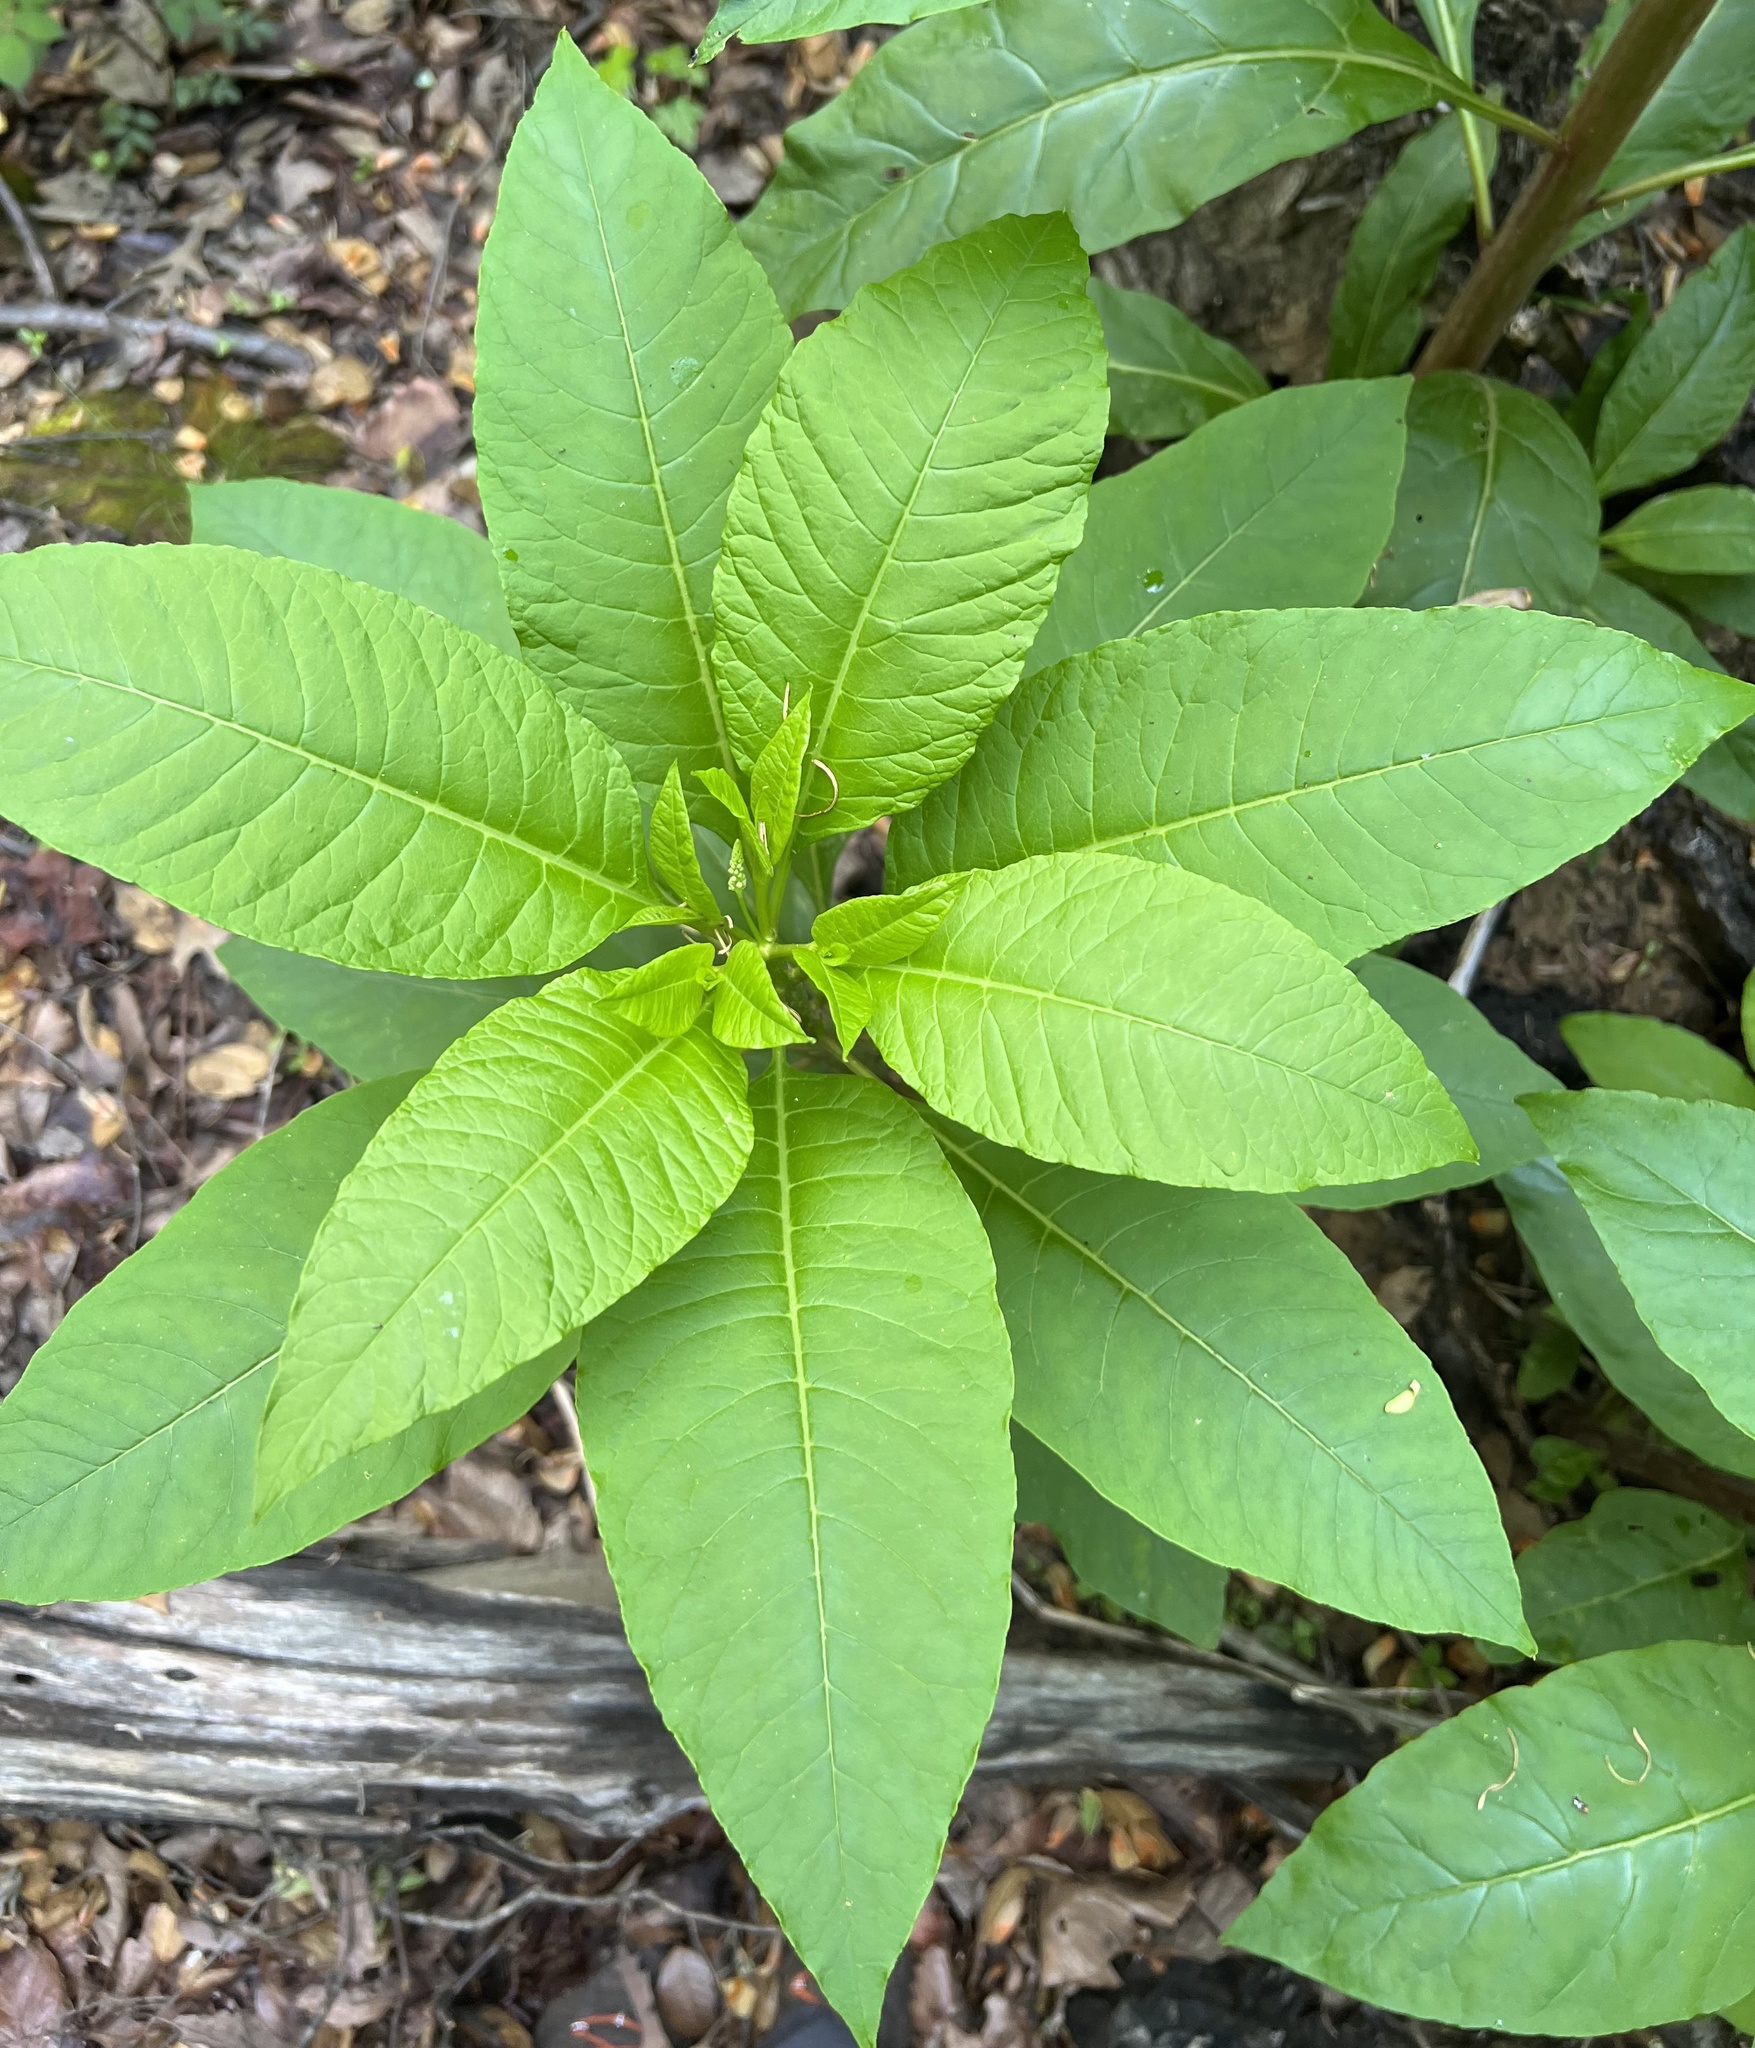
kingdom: Plantae
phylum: Tracheophyta
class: Magnoliopsida
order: Caryophyllales
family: Phytolaccaceae
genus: Phytolacca
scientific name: Phytolacca americana
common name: American pokeweed
